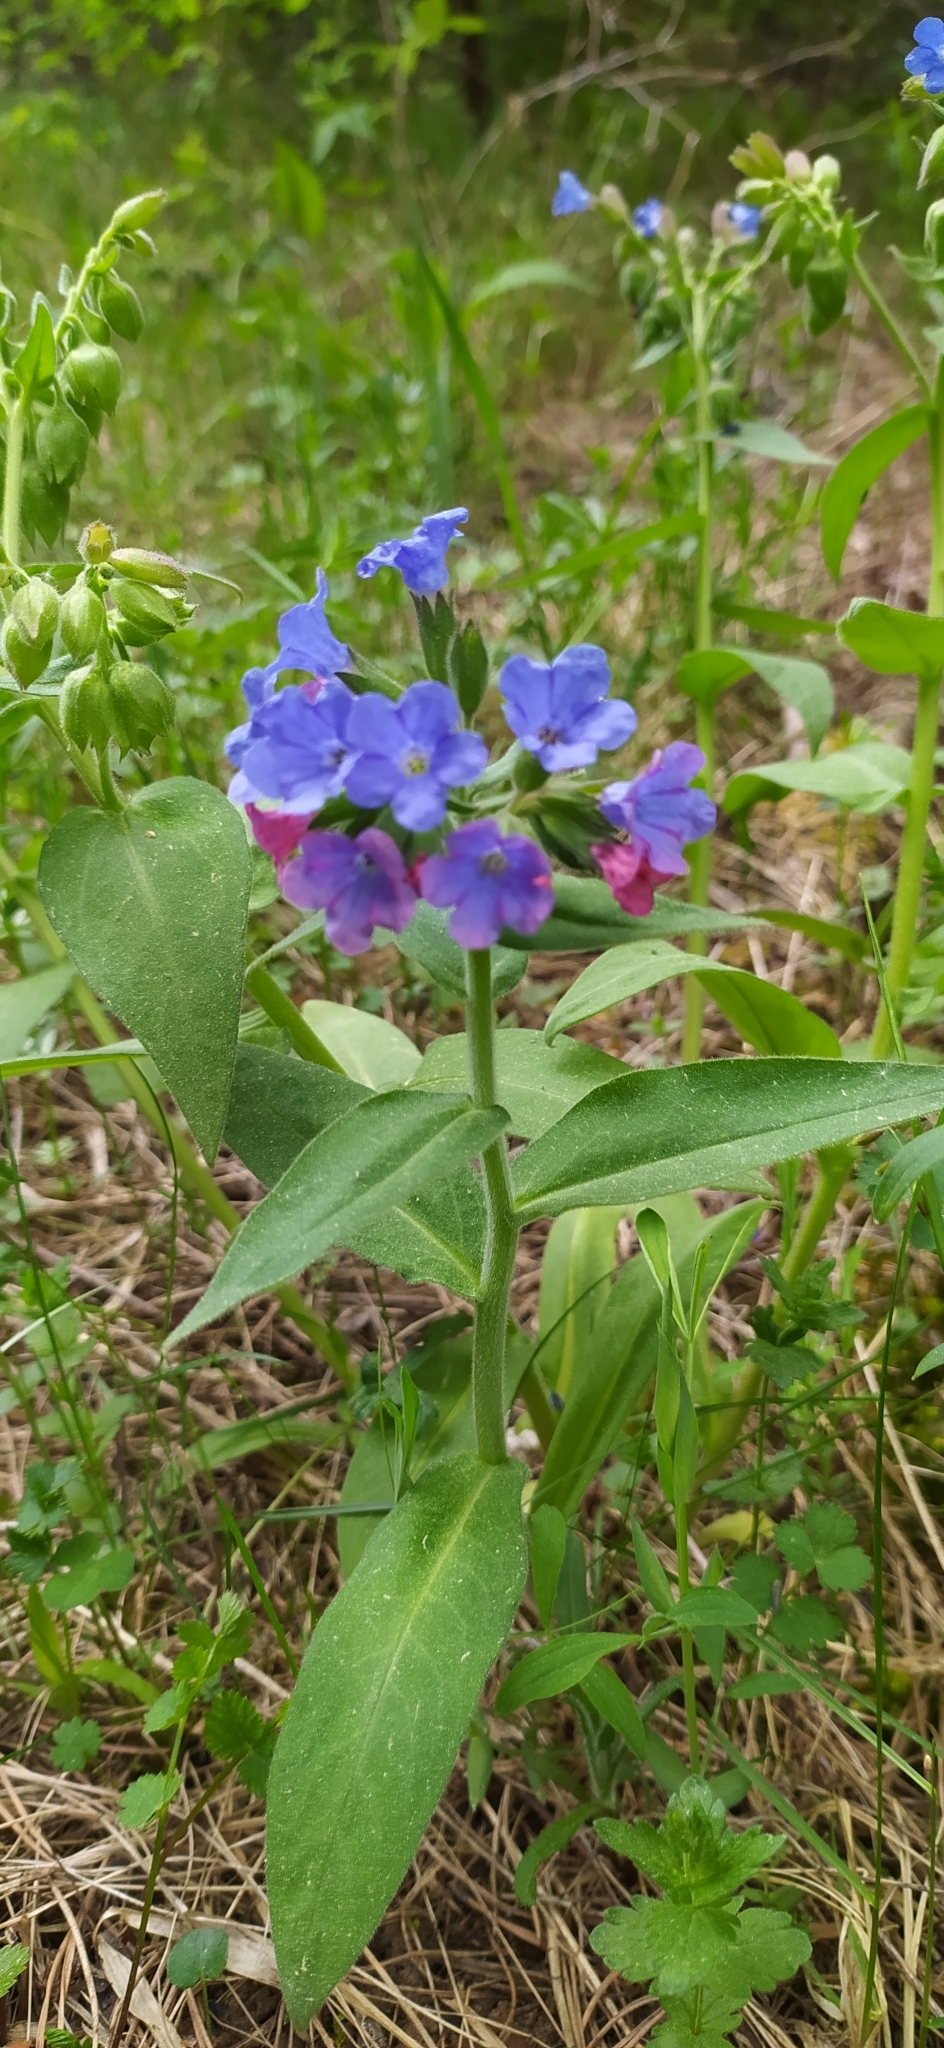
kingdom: Plantae
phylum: Tracheophyta
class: Magnoliopsida
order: Boraginales
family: Boraginaceae
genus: Pulmonaria
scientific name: Pulmonaria mollis
